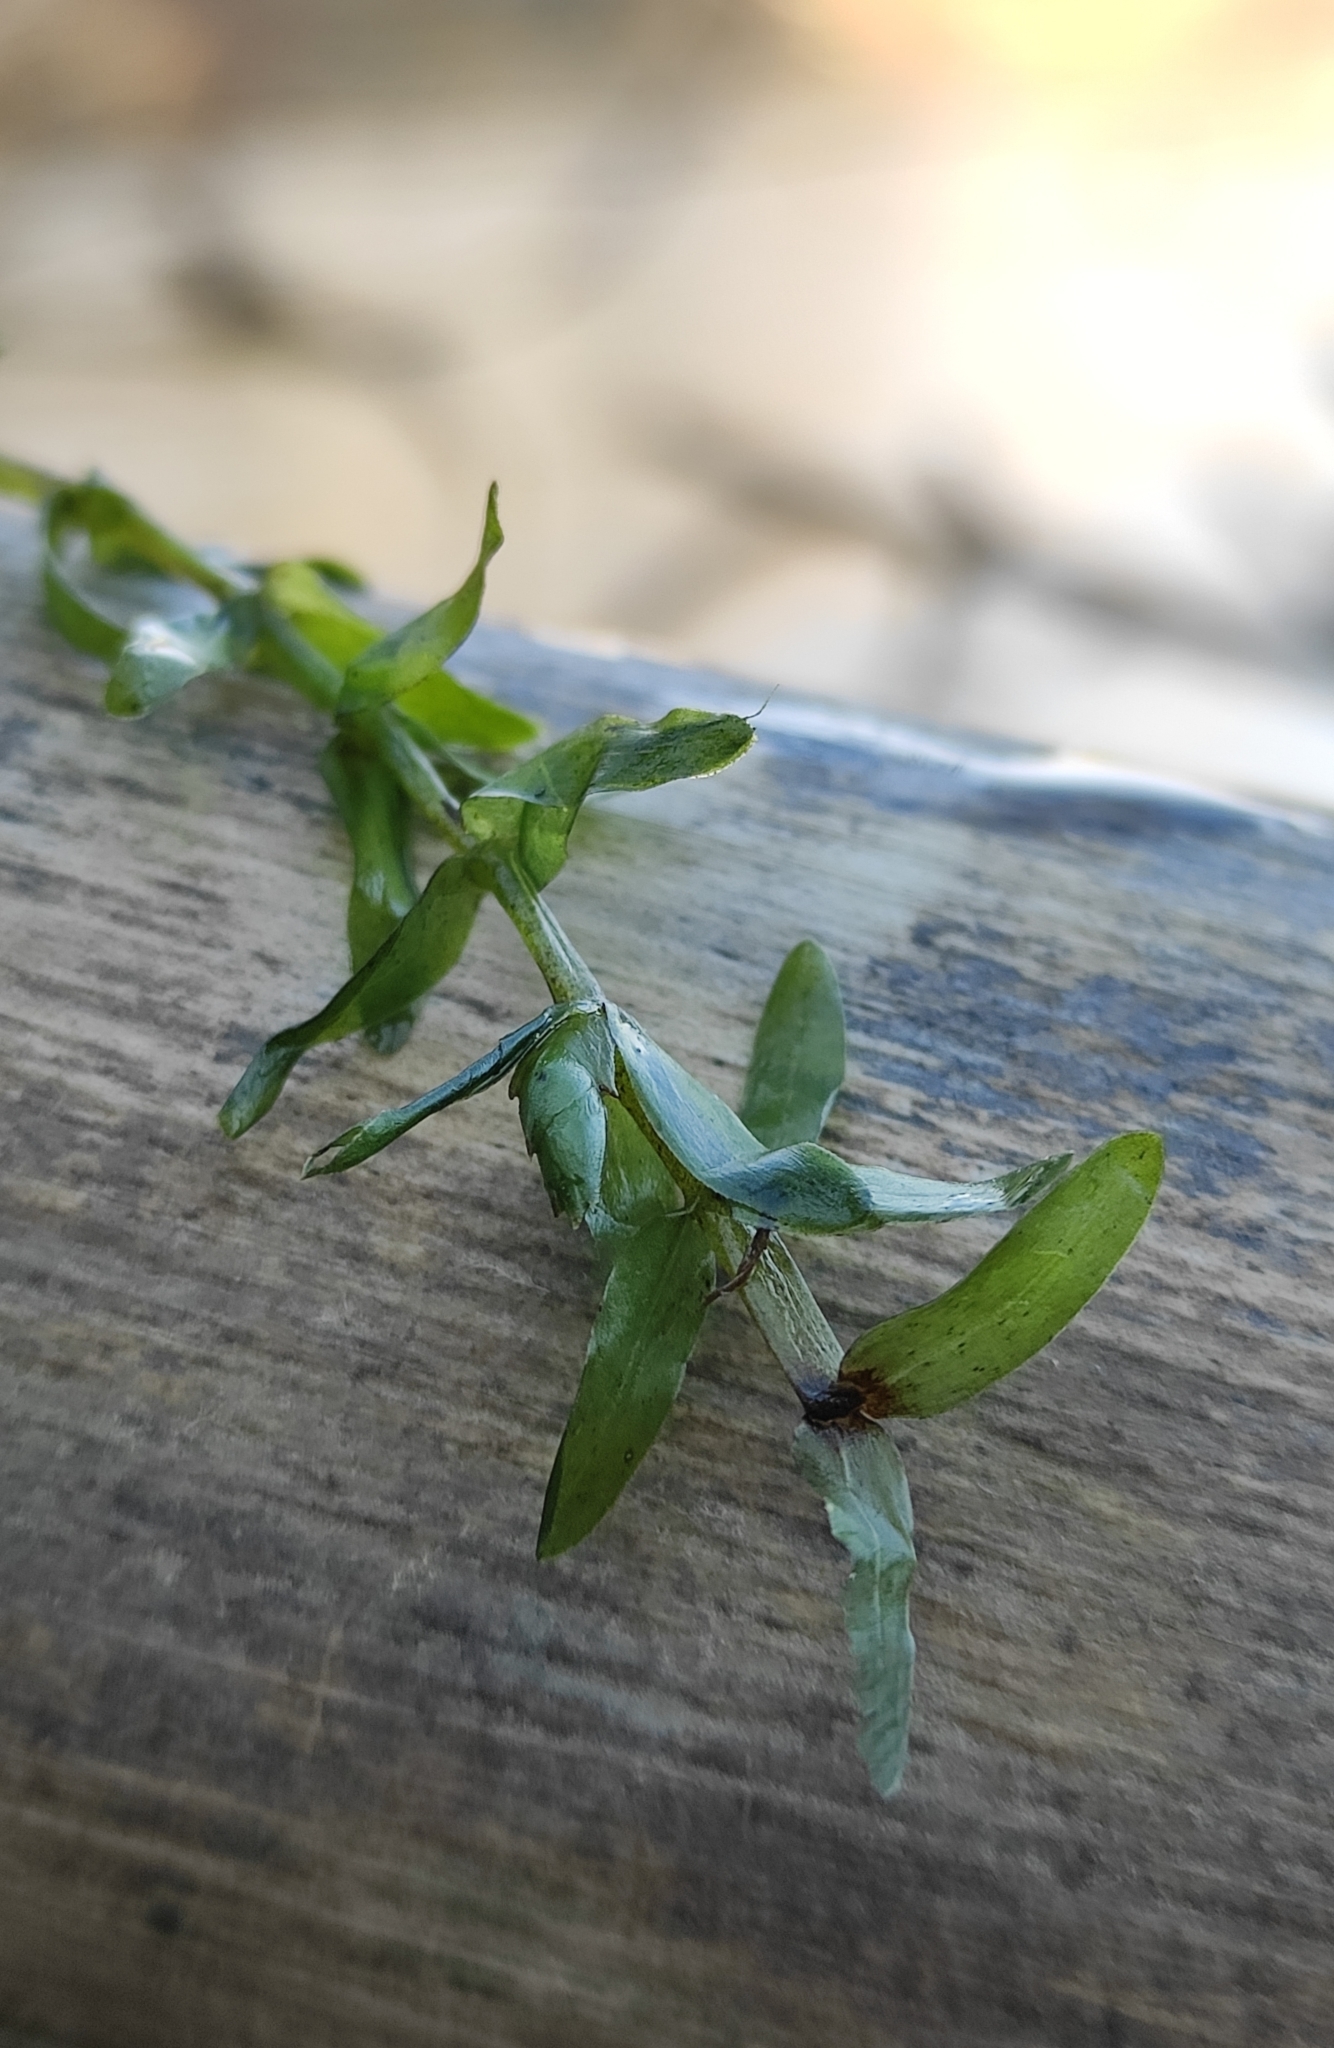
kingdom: Plantae
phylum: Tracheophyta
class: Liliopsida
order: Alismatales
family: Hydrocharitaceae
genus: Elodea
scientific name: Elodea canadensis
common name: Canadian waterweed
